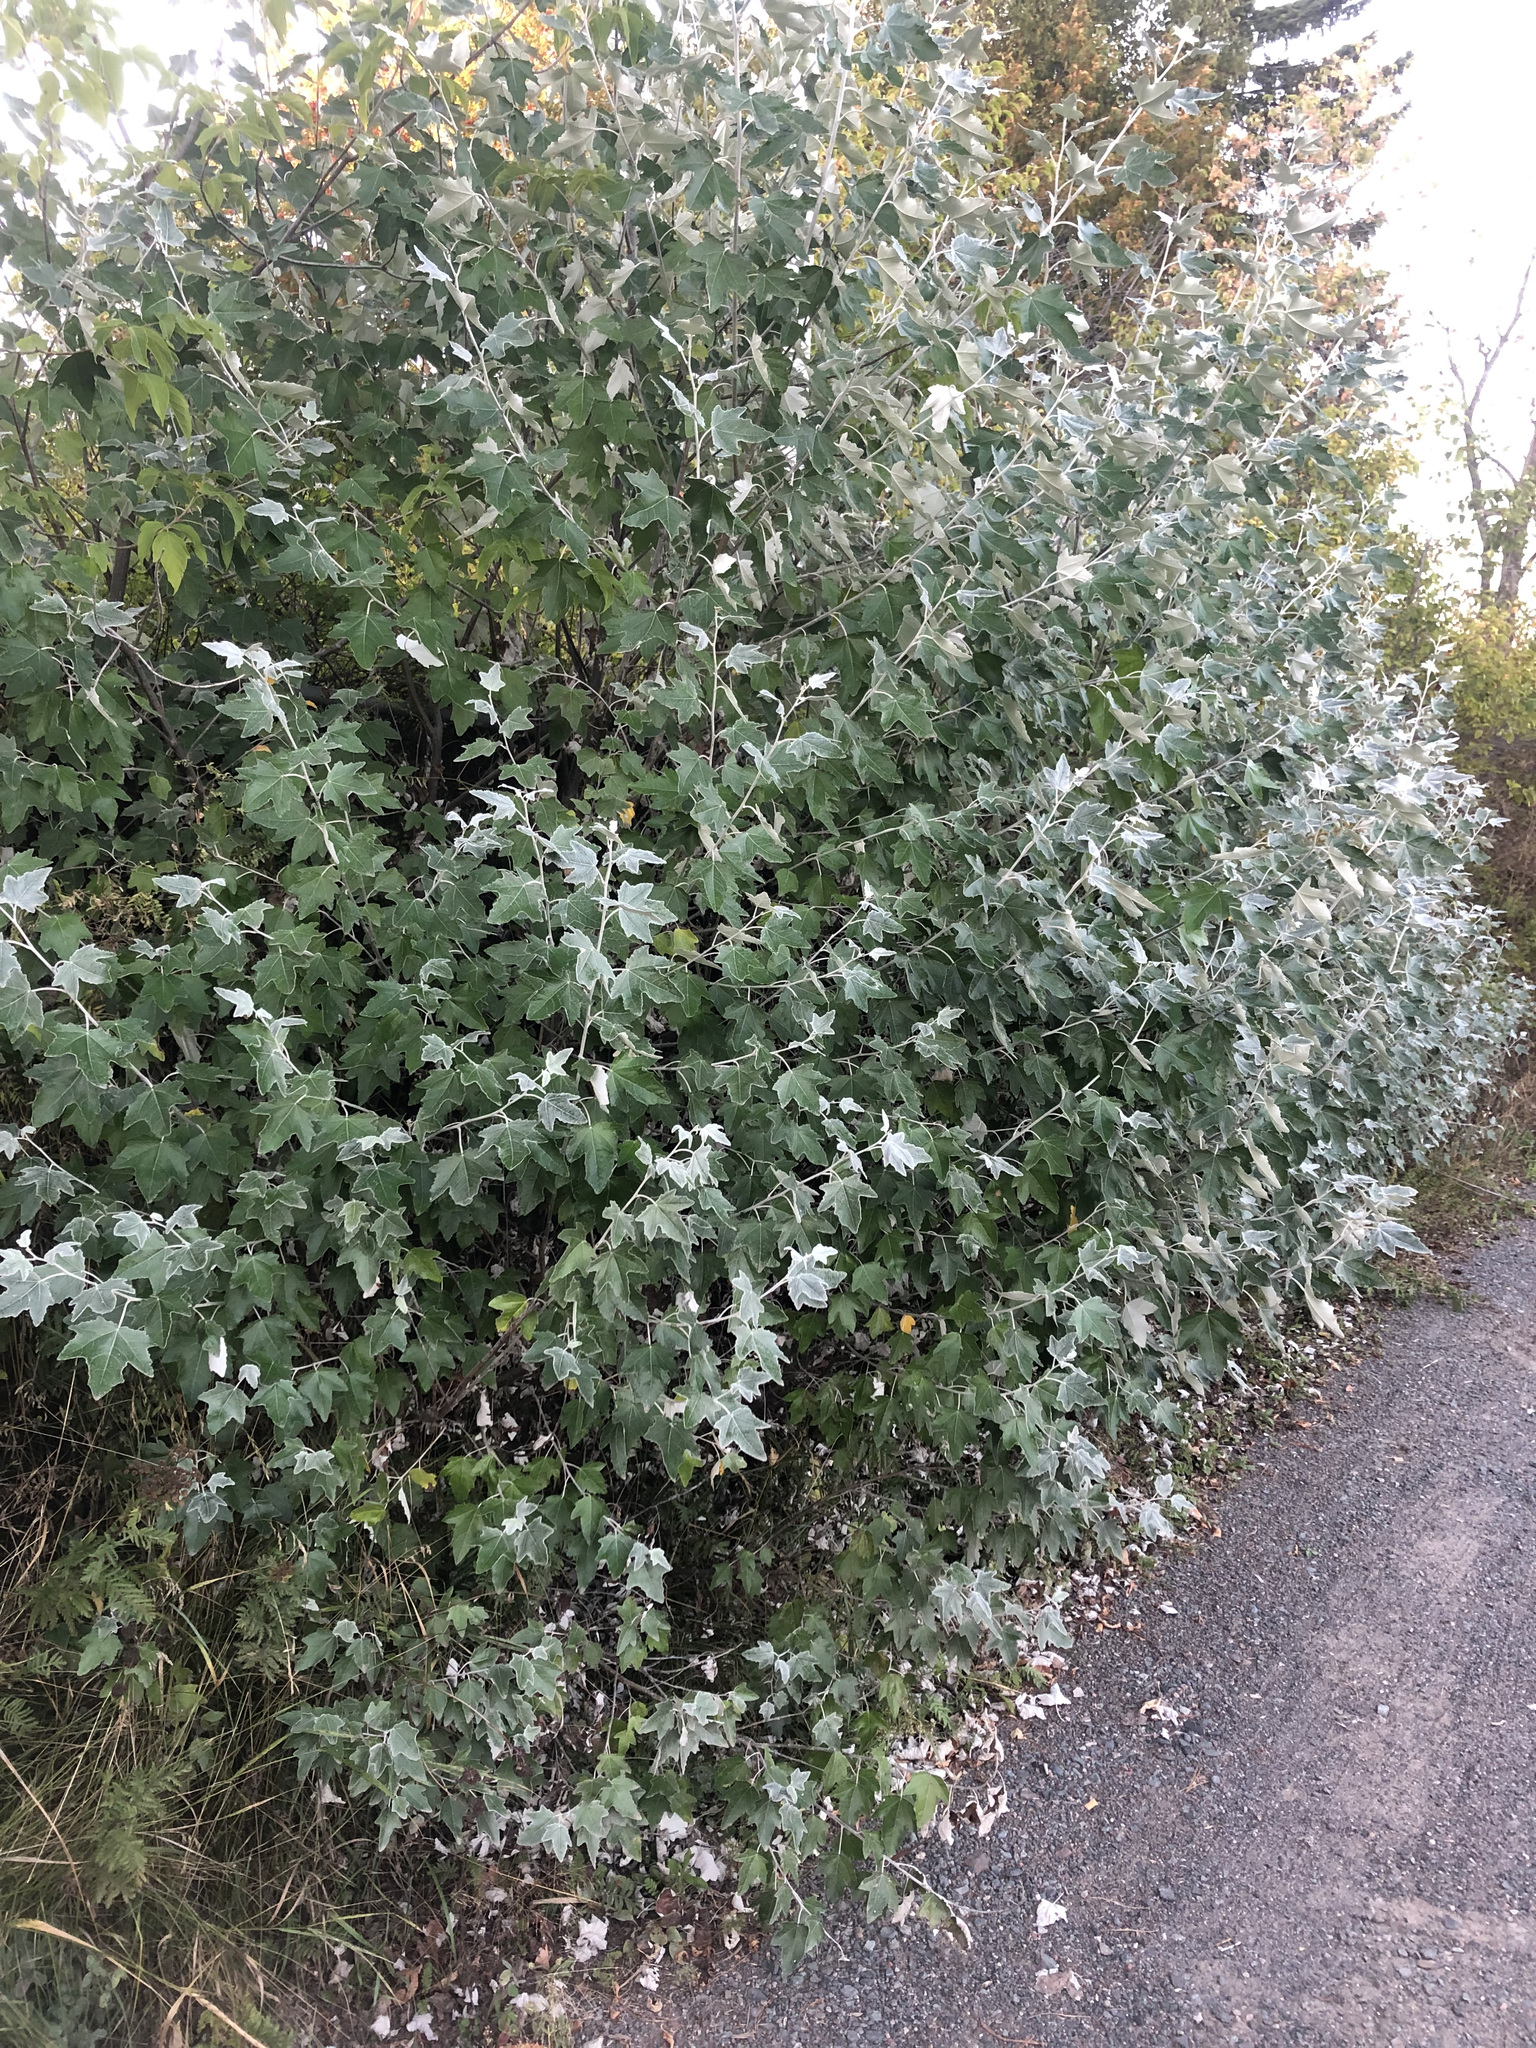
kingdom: Plantae
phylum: Tracheophyta
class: Magnoliopsida
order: Malpighiales
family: Salicaceae
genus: Populus
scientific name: Populus alba
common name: White poplar
